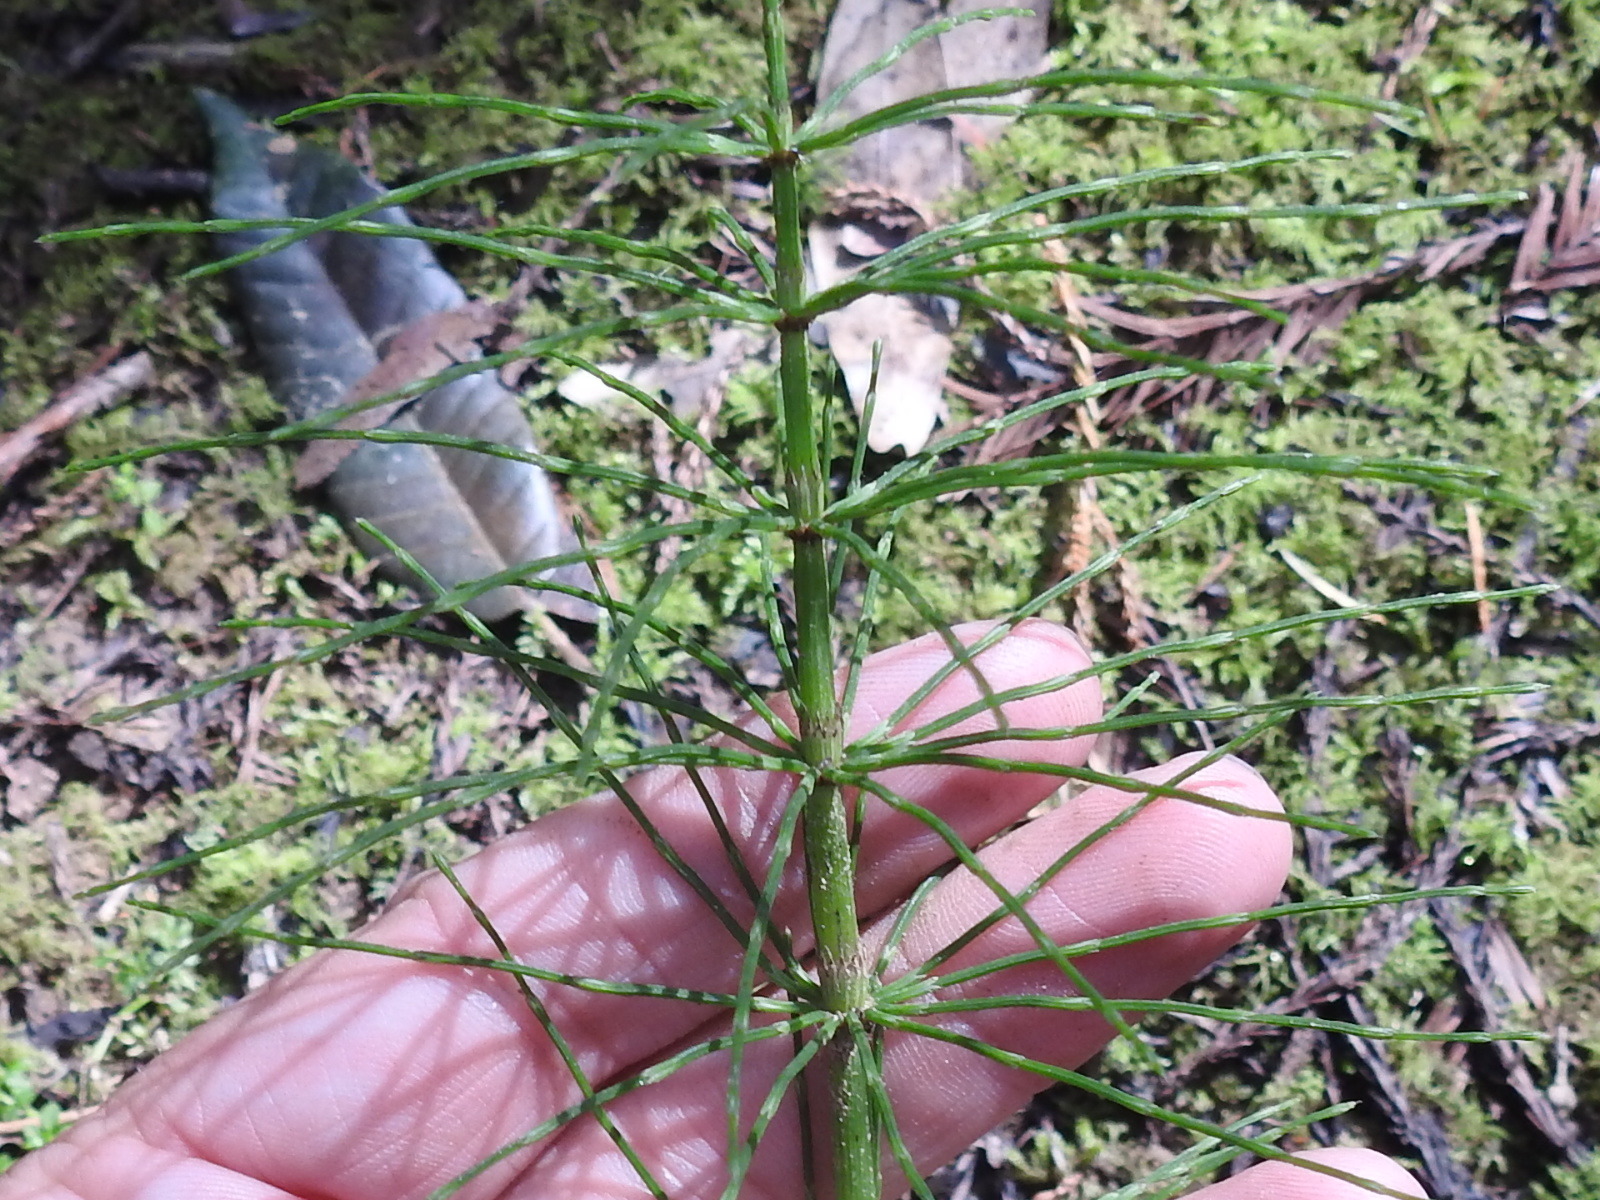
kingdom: Plantae
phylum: Tracheophyta
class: Polypodiopsida
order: Equisetales
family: Equisetaceae
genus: Equisetum
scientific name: Equisetum telmateia
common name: Great horsetail
